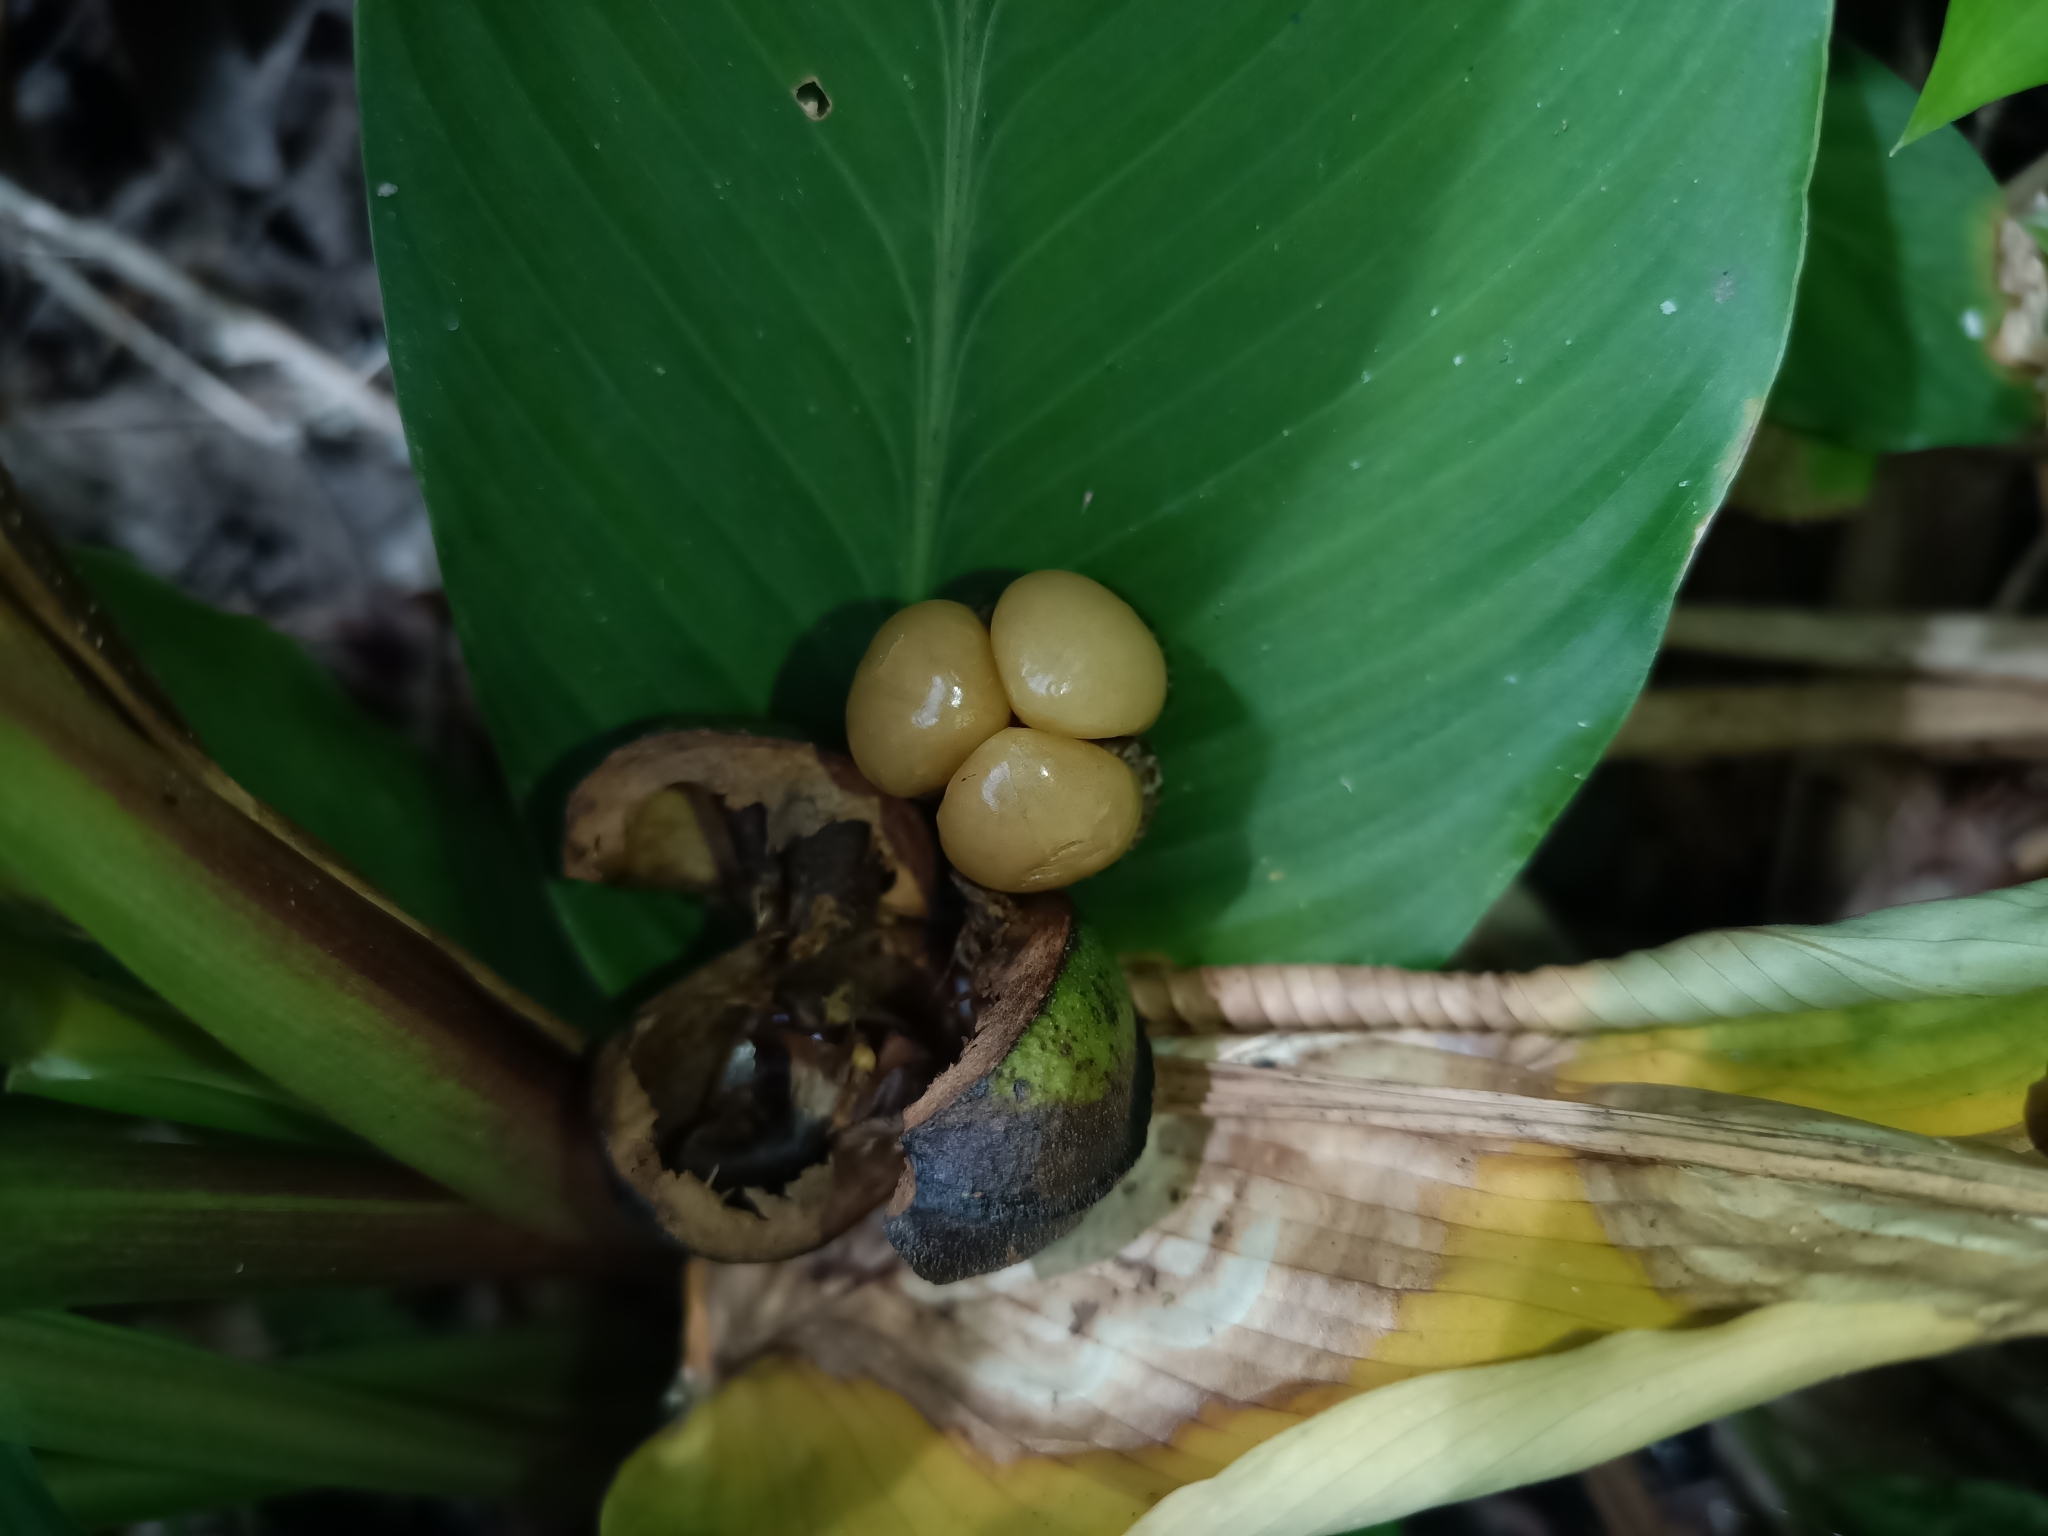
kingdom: Plantae
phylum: Tracheophyta
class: Magnoliopsida
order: Malpighiales
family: Euphorbiaceae
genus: Conceveiba
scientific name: Conceveiba guianensis
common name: Poatoru
